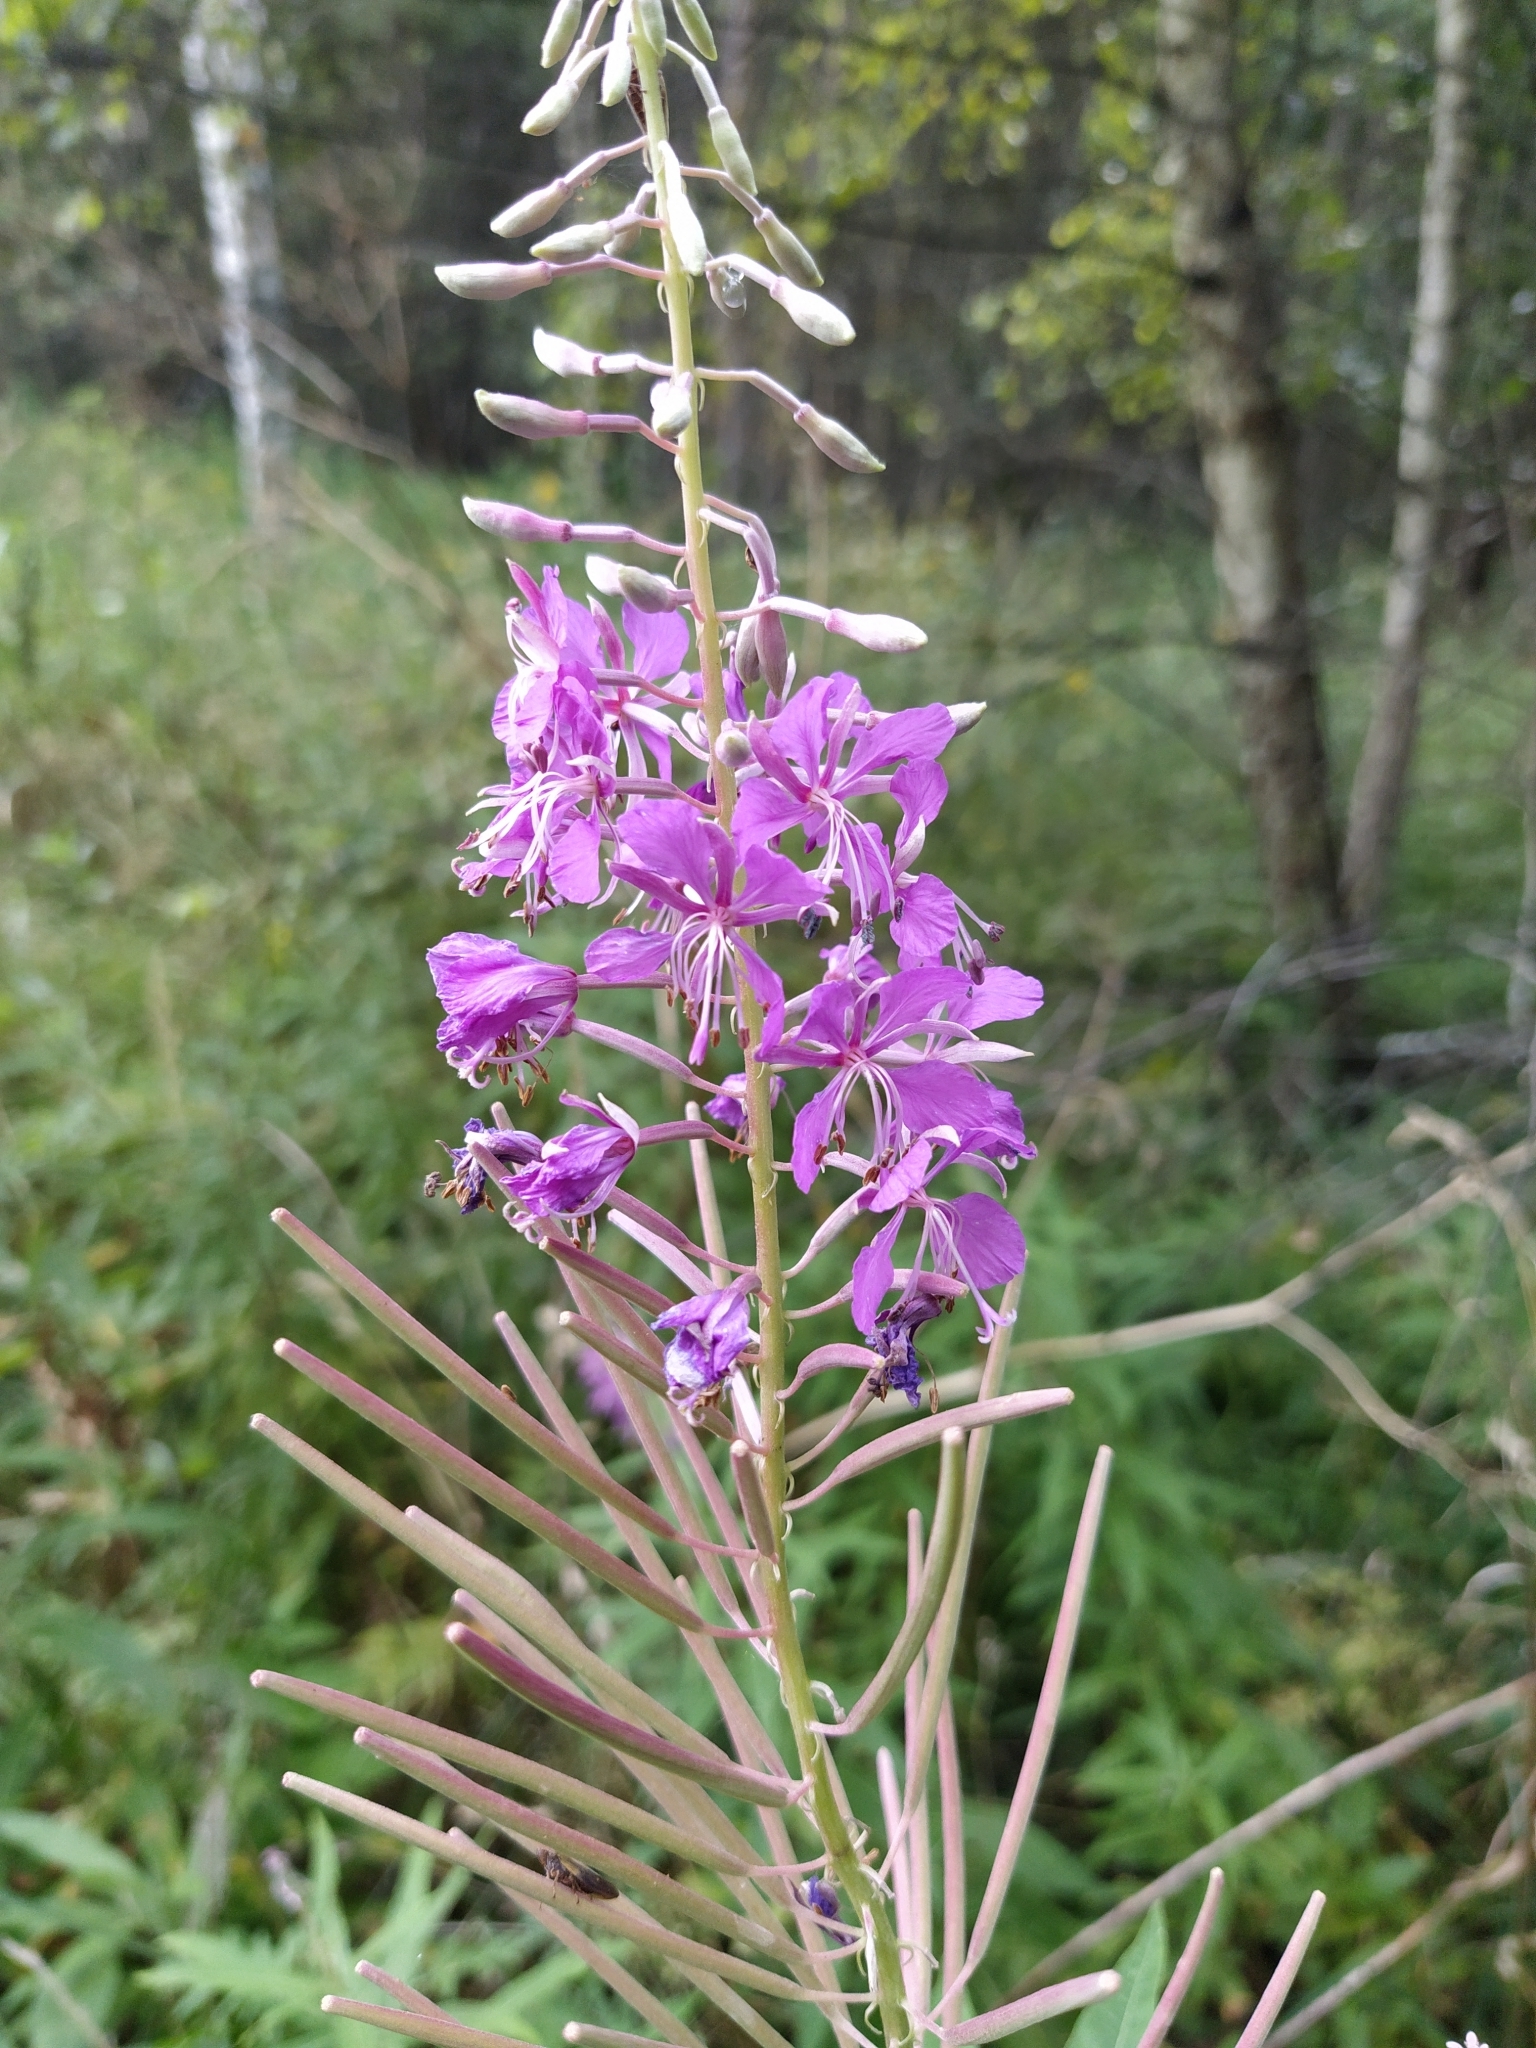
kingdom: Plantae
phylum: Tracheophyta
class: Magnoliopsida
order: Myrtales
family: Onagraceae
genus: Chamaenerion
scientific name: Chamaenerion angustifolium
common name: Fireweed
